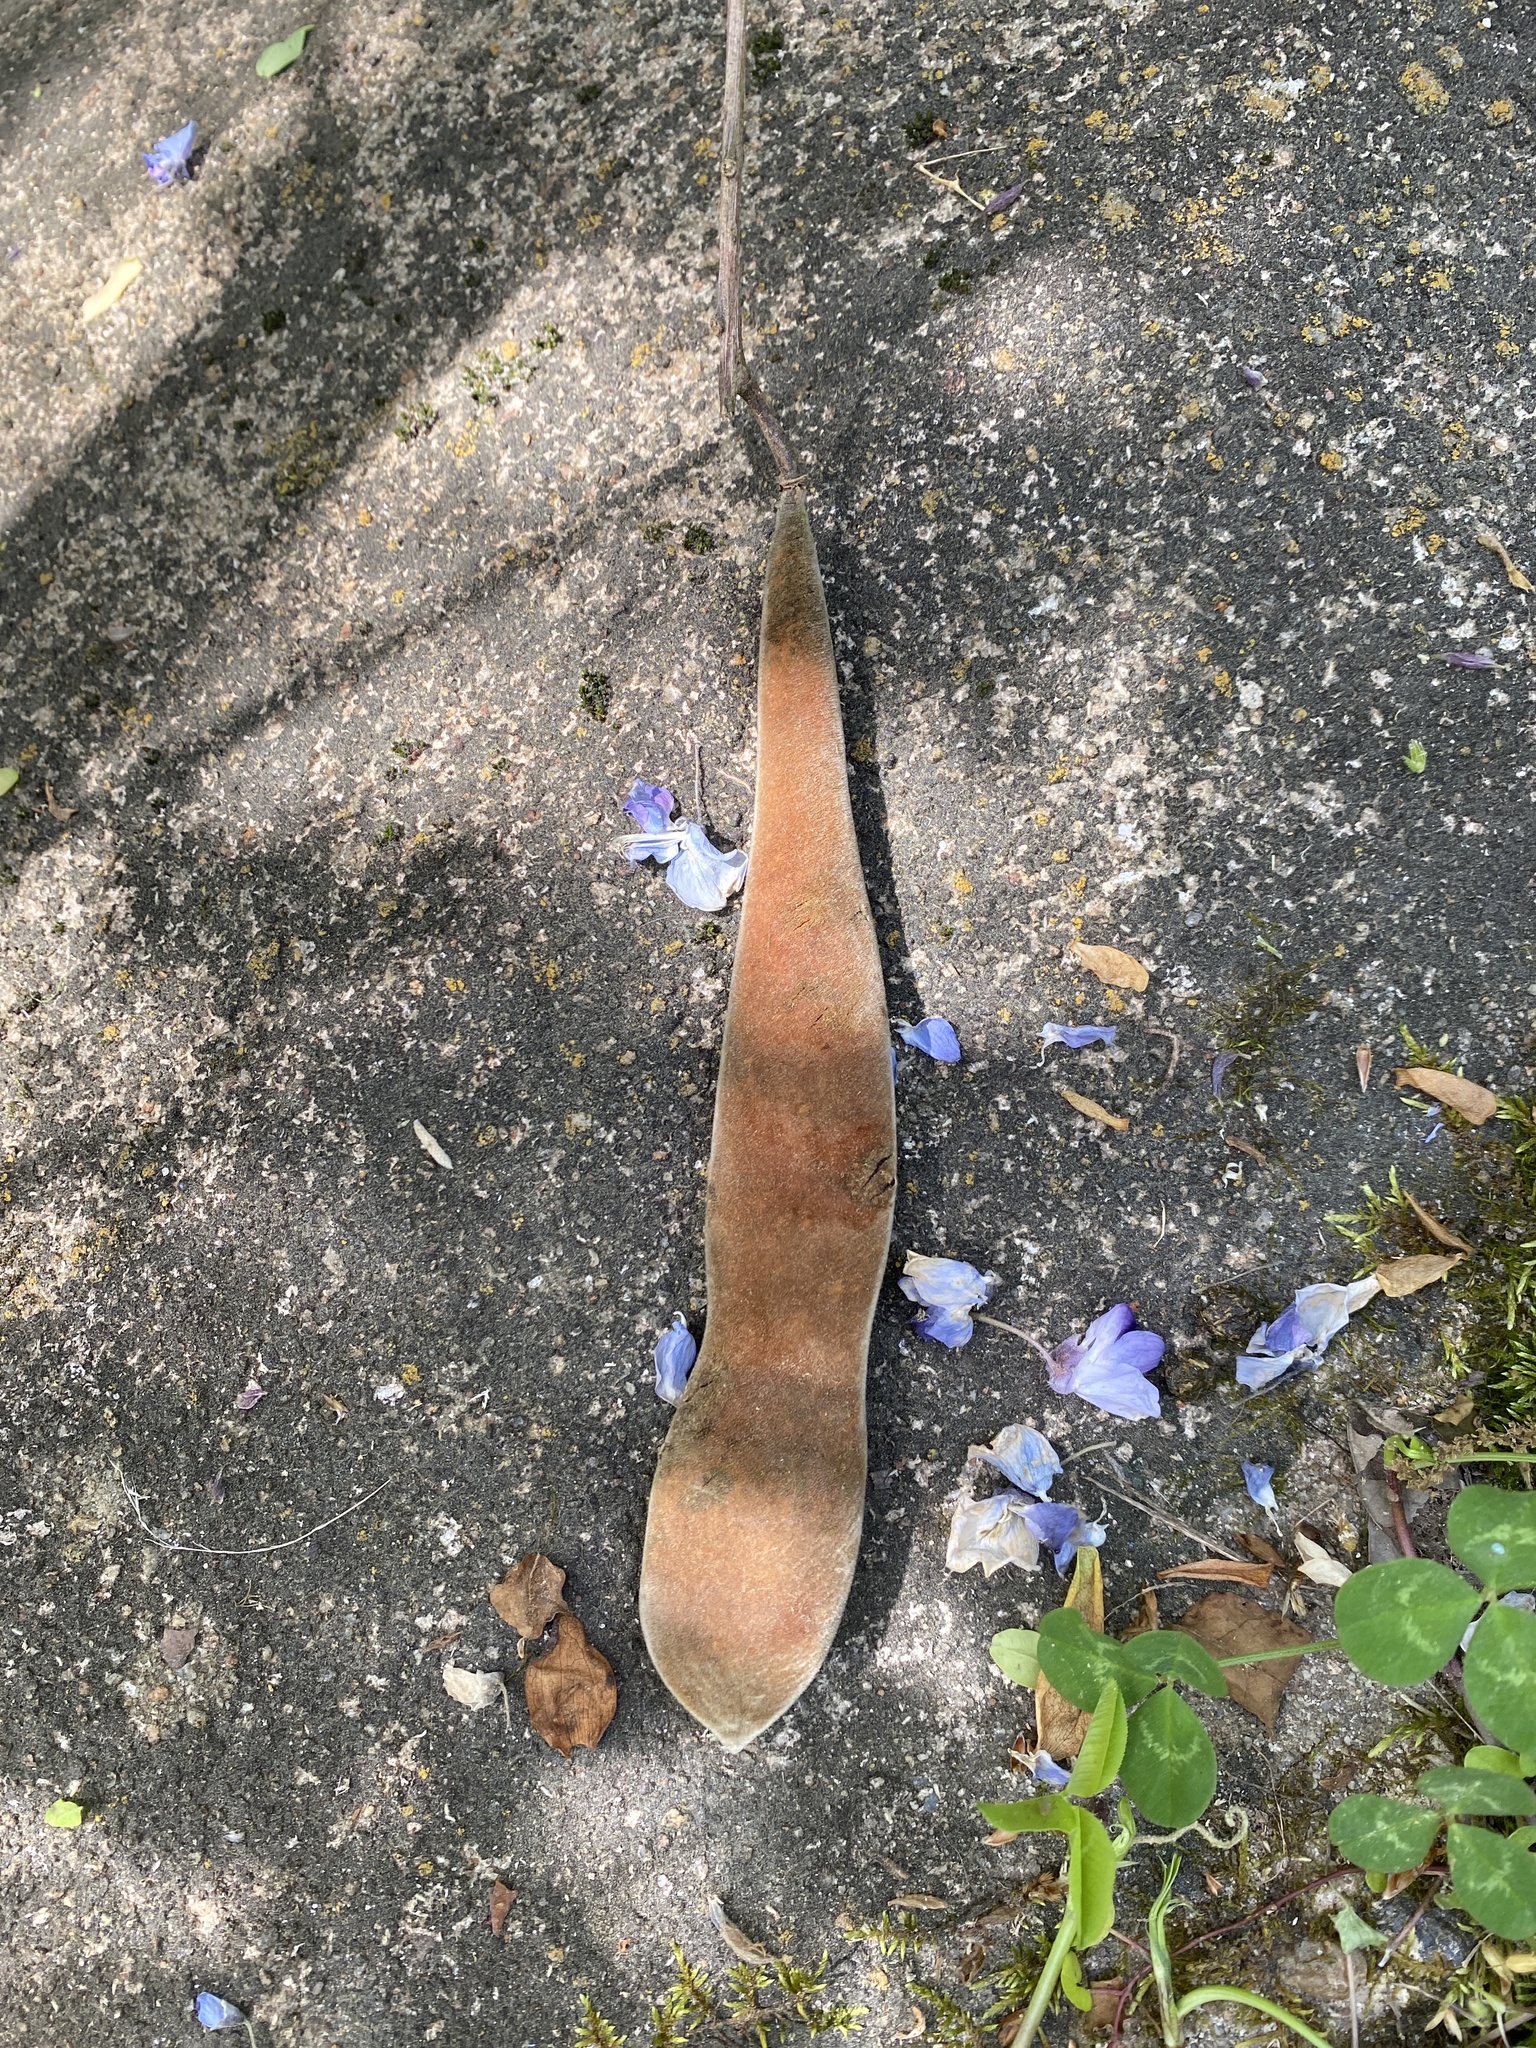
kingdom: Plantae
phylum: Tracheophyta
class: Magnoliopsida
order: Fabales
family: Fabaceae
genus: Wisteria
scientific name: Wisteria sinensis
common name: Chinese wisteria
